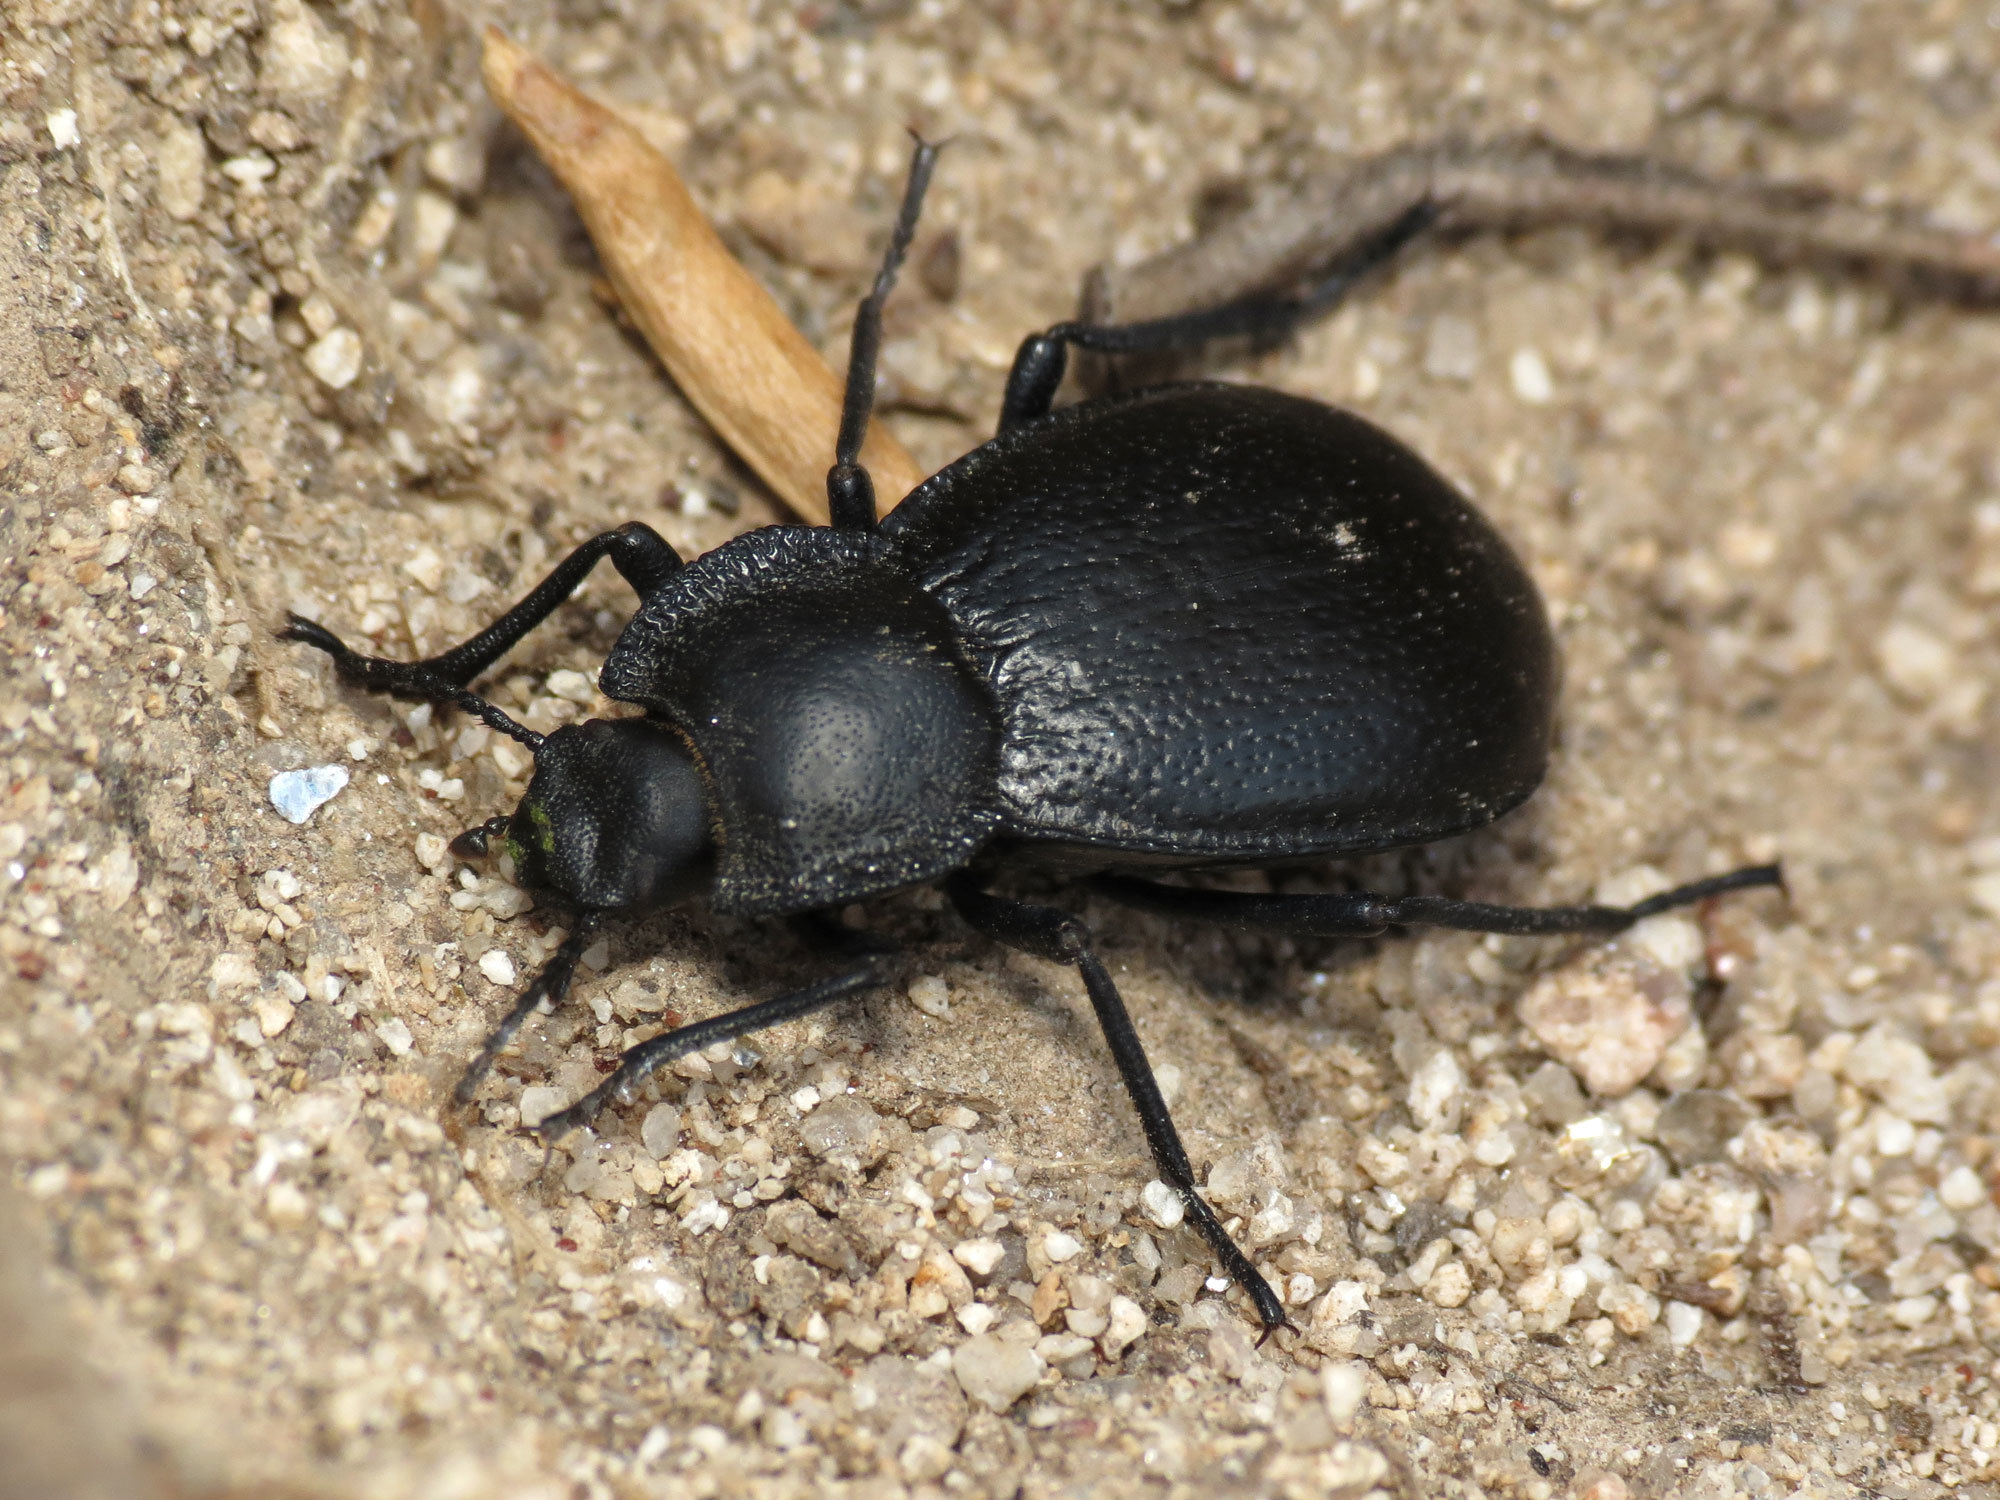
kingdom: Animalia
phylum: Arthropoda
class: Insecta
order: Coleoptera
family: Tenebrionidae
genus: Stenomorpha
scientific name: Stenomorpha marginata
